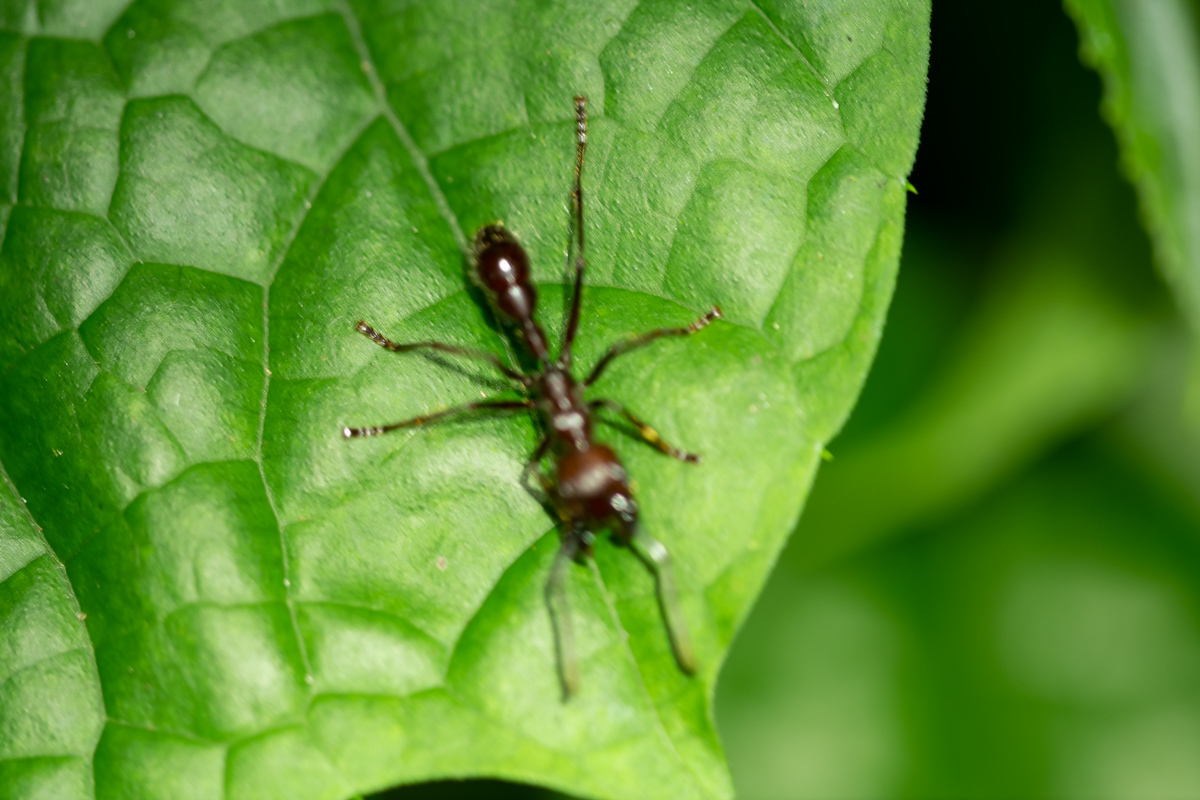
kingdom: Animalia
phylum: Arthropoda
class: Insecta
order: Hymenoptera
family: Formicidae
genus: Paraponera
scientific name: Paraponera clavata
